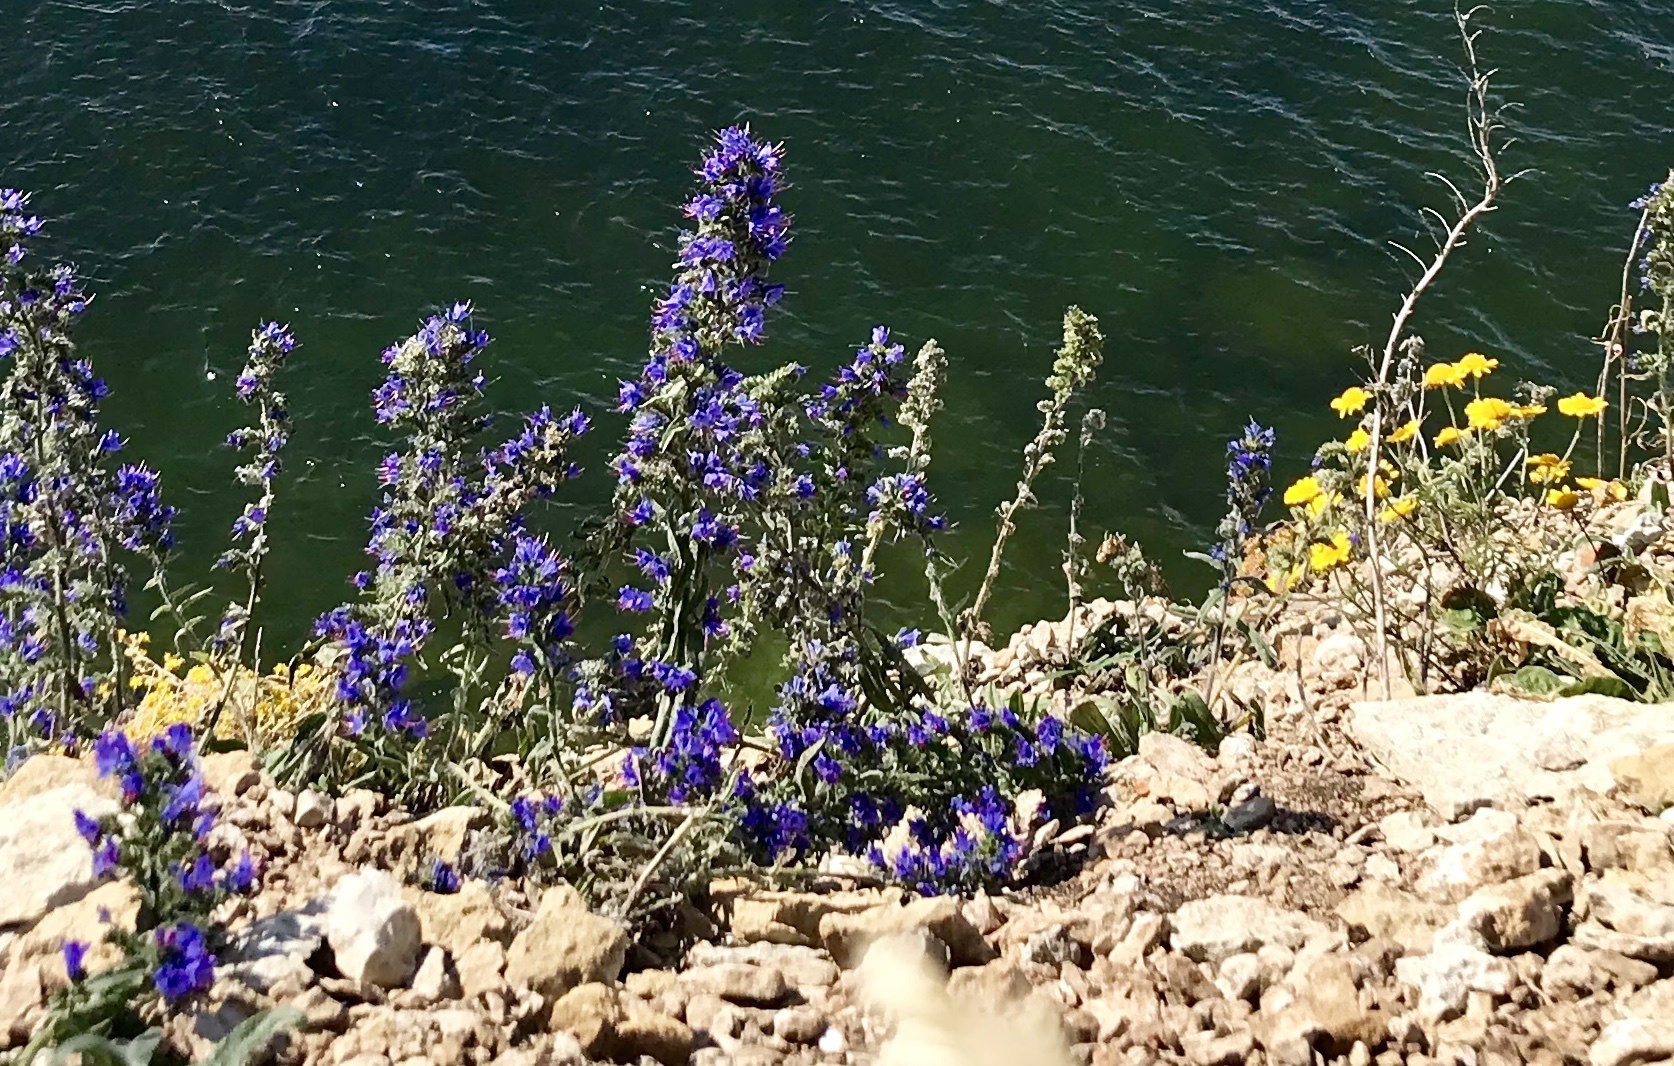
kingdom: Plantae
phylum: Tracheophyta
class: Magnoliopsida
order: Boraginales
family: Boraginaceae
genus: Echium
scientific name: Echium vulgare
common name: Common viper's bugloss
